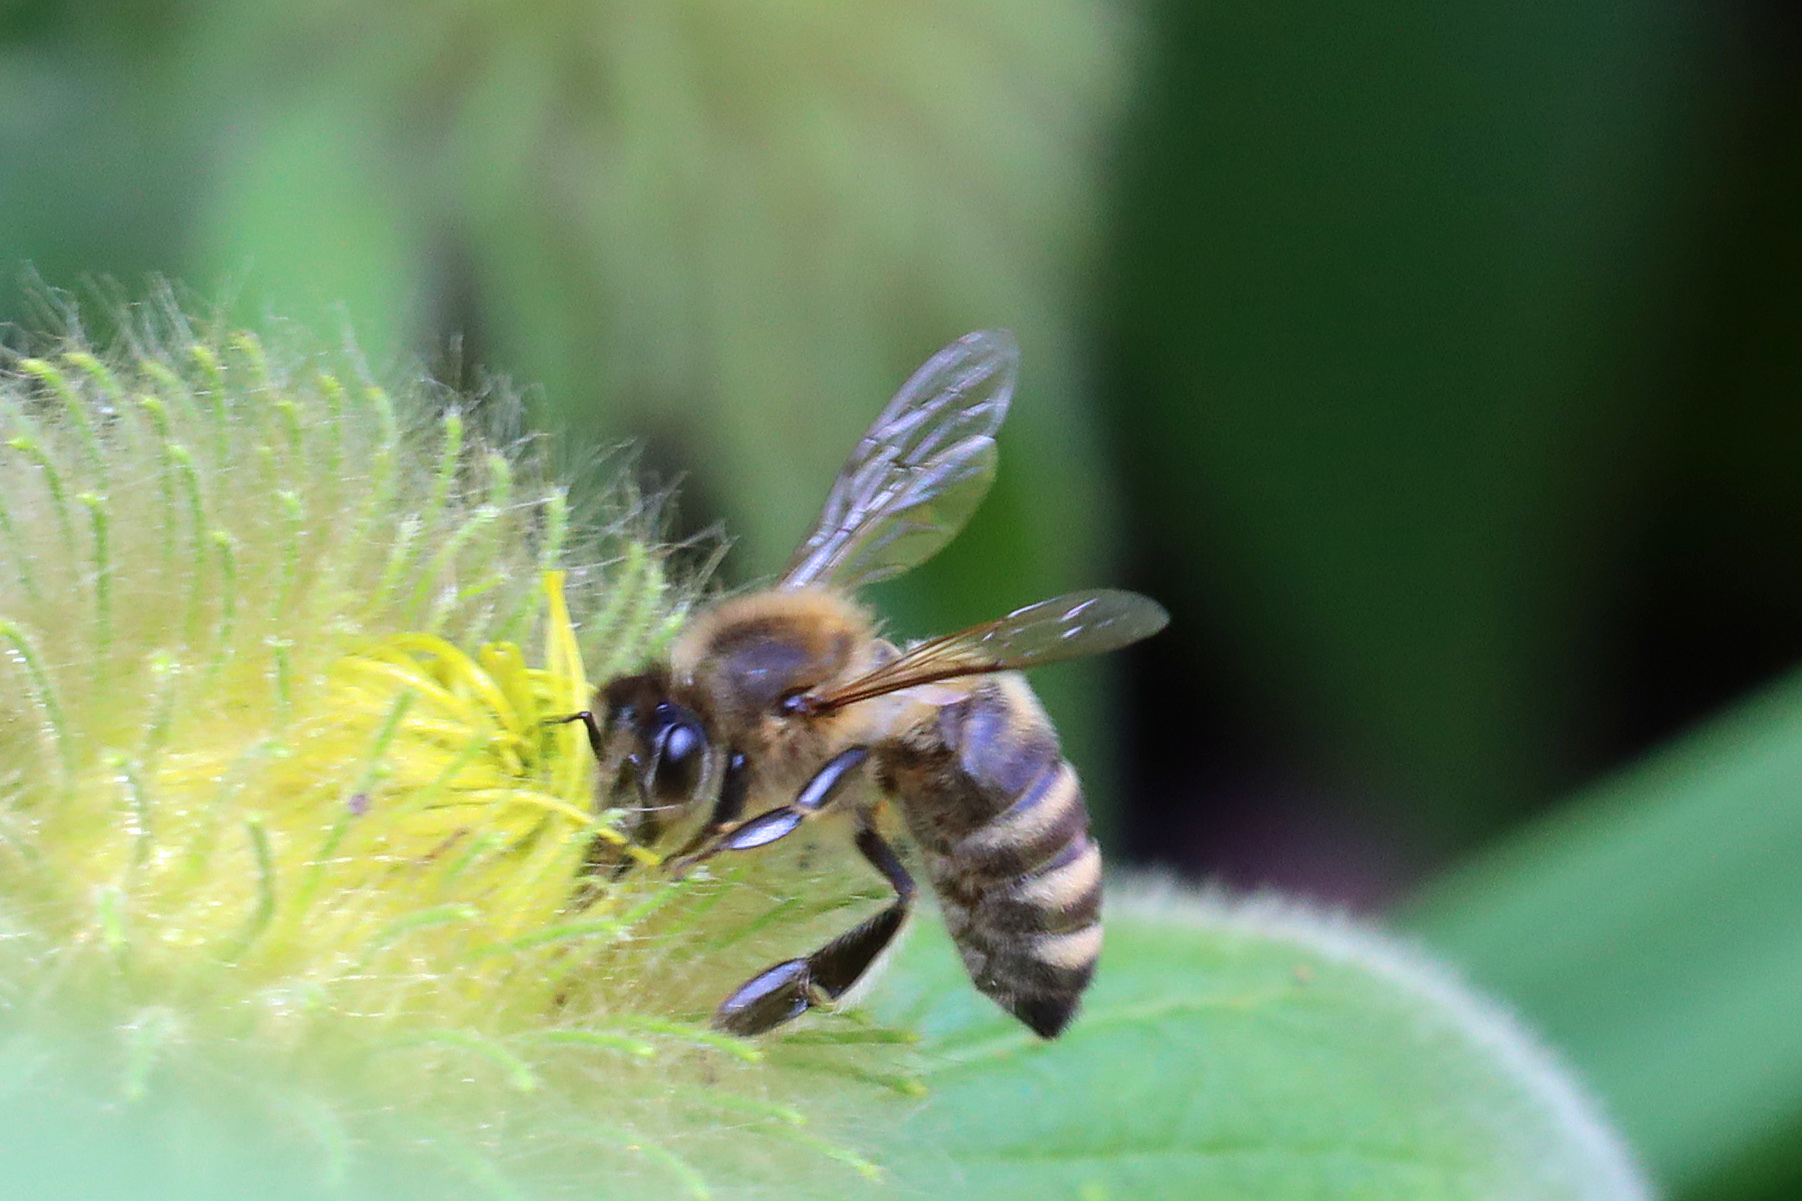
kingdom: Animalia
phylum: Arthropoda
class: Insecta
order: Hymenoptera
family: Apidae
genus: Apis
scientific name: Apis mellifera
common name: Honey bee
